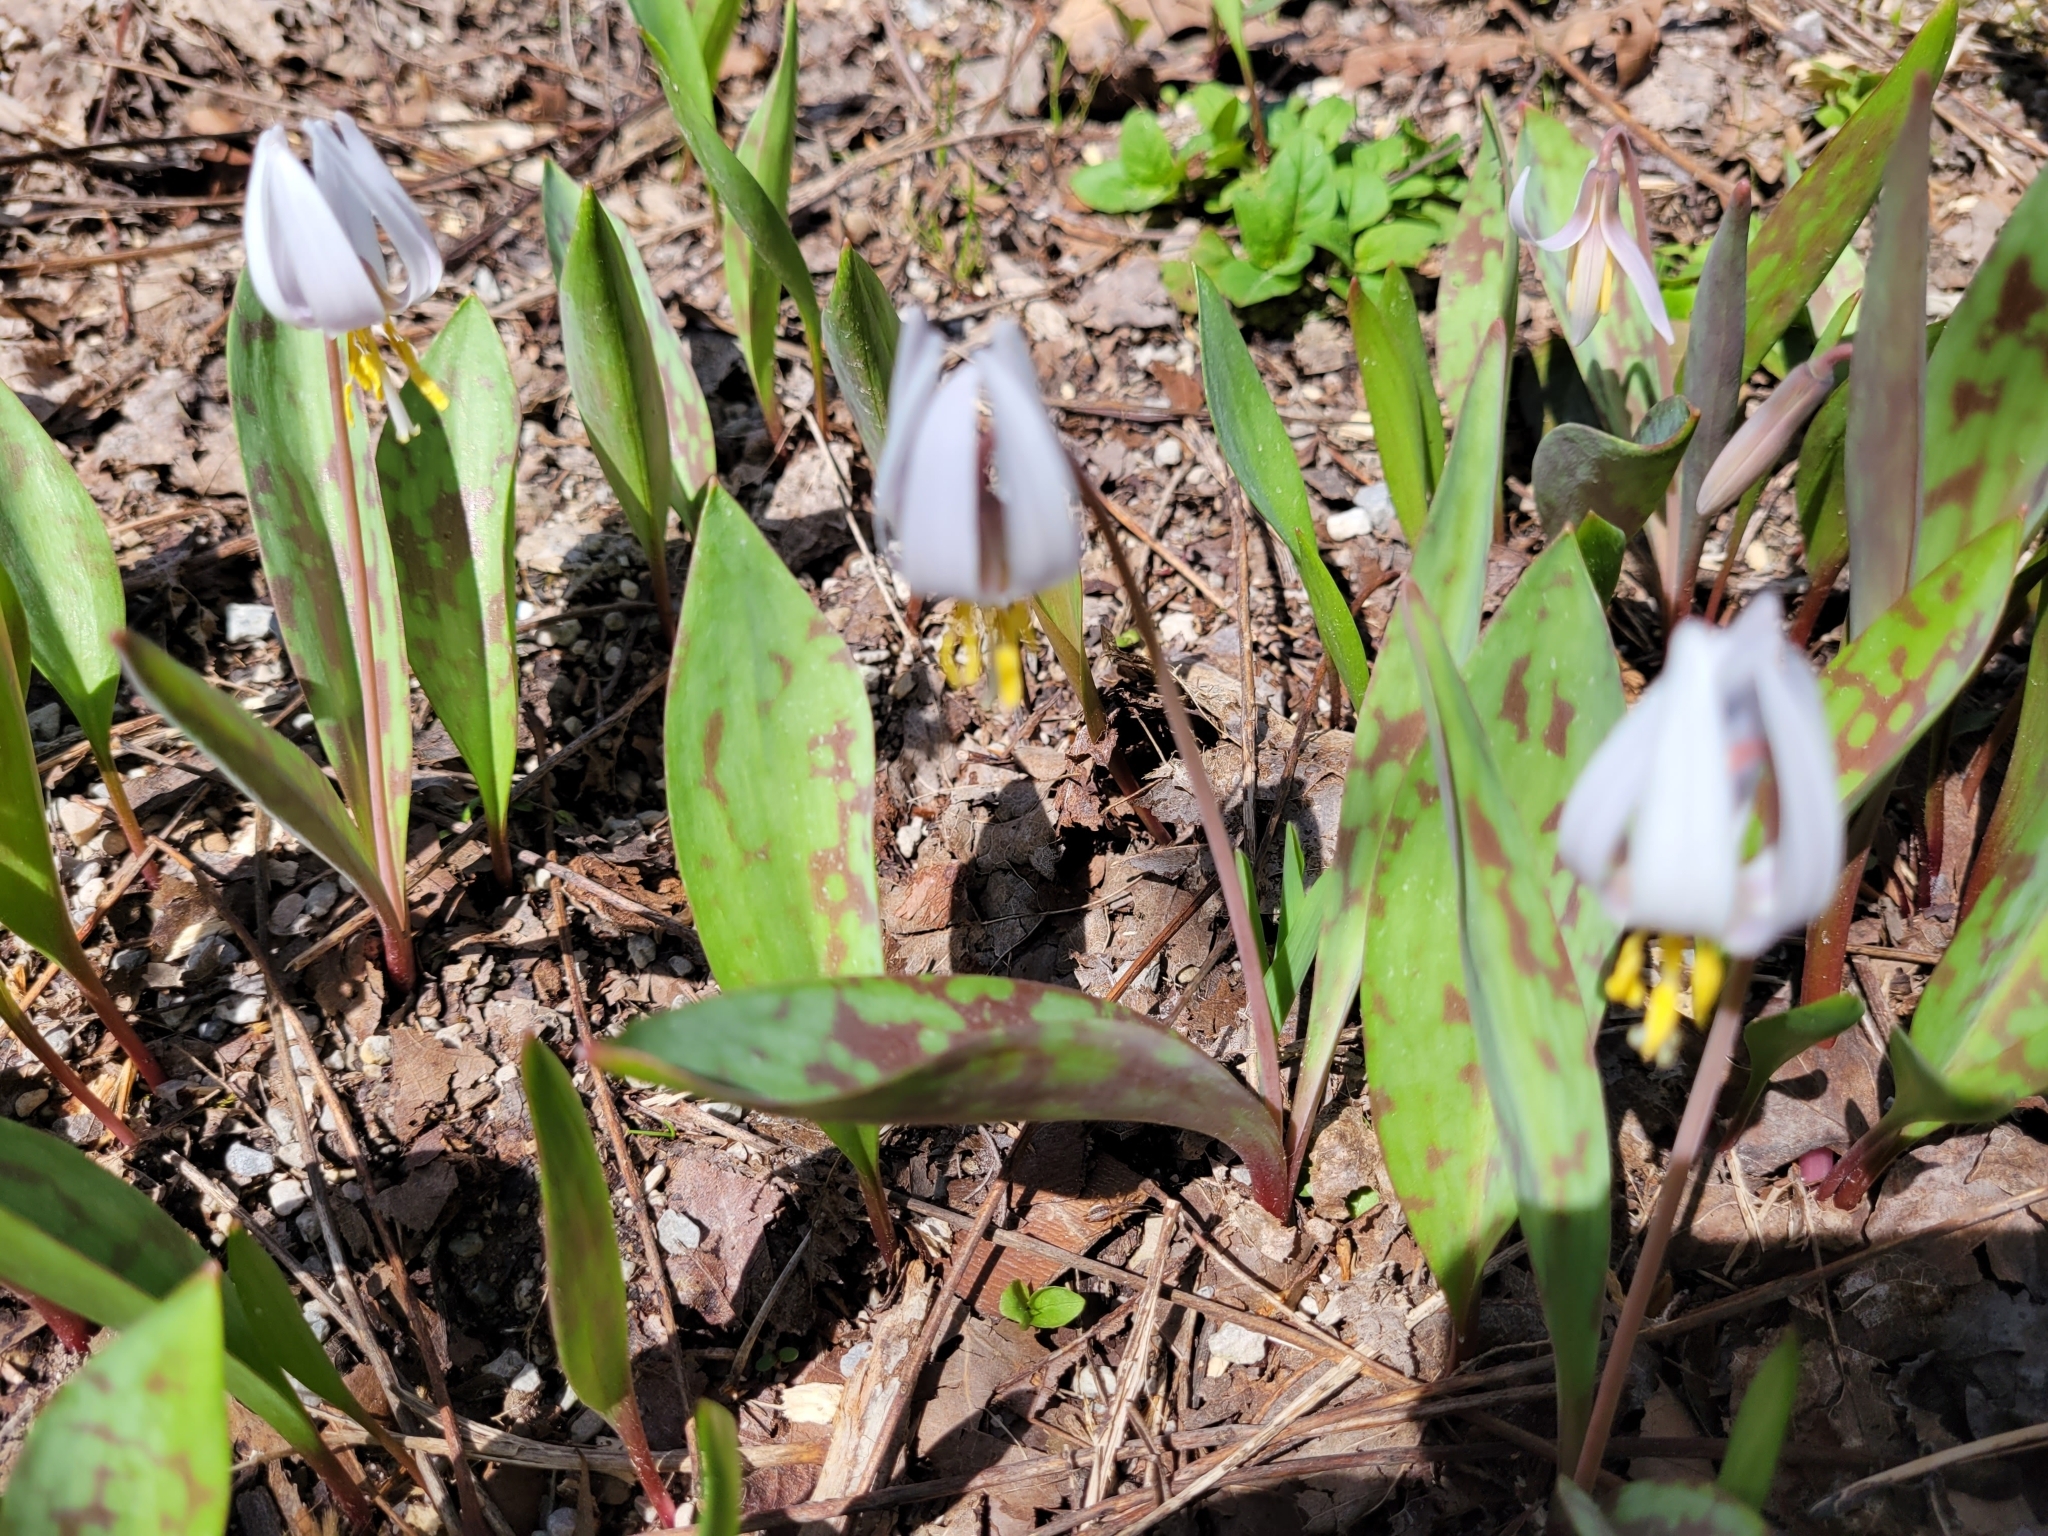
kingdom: Plantae
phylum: Tracheophyta
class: Liliopsida
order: Liliales
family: Liliaceae
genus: Erythronium
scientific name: Erythronium albidum
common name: White trout-lily
